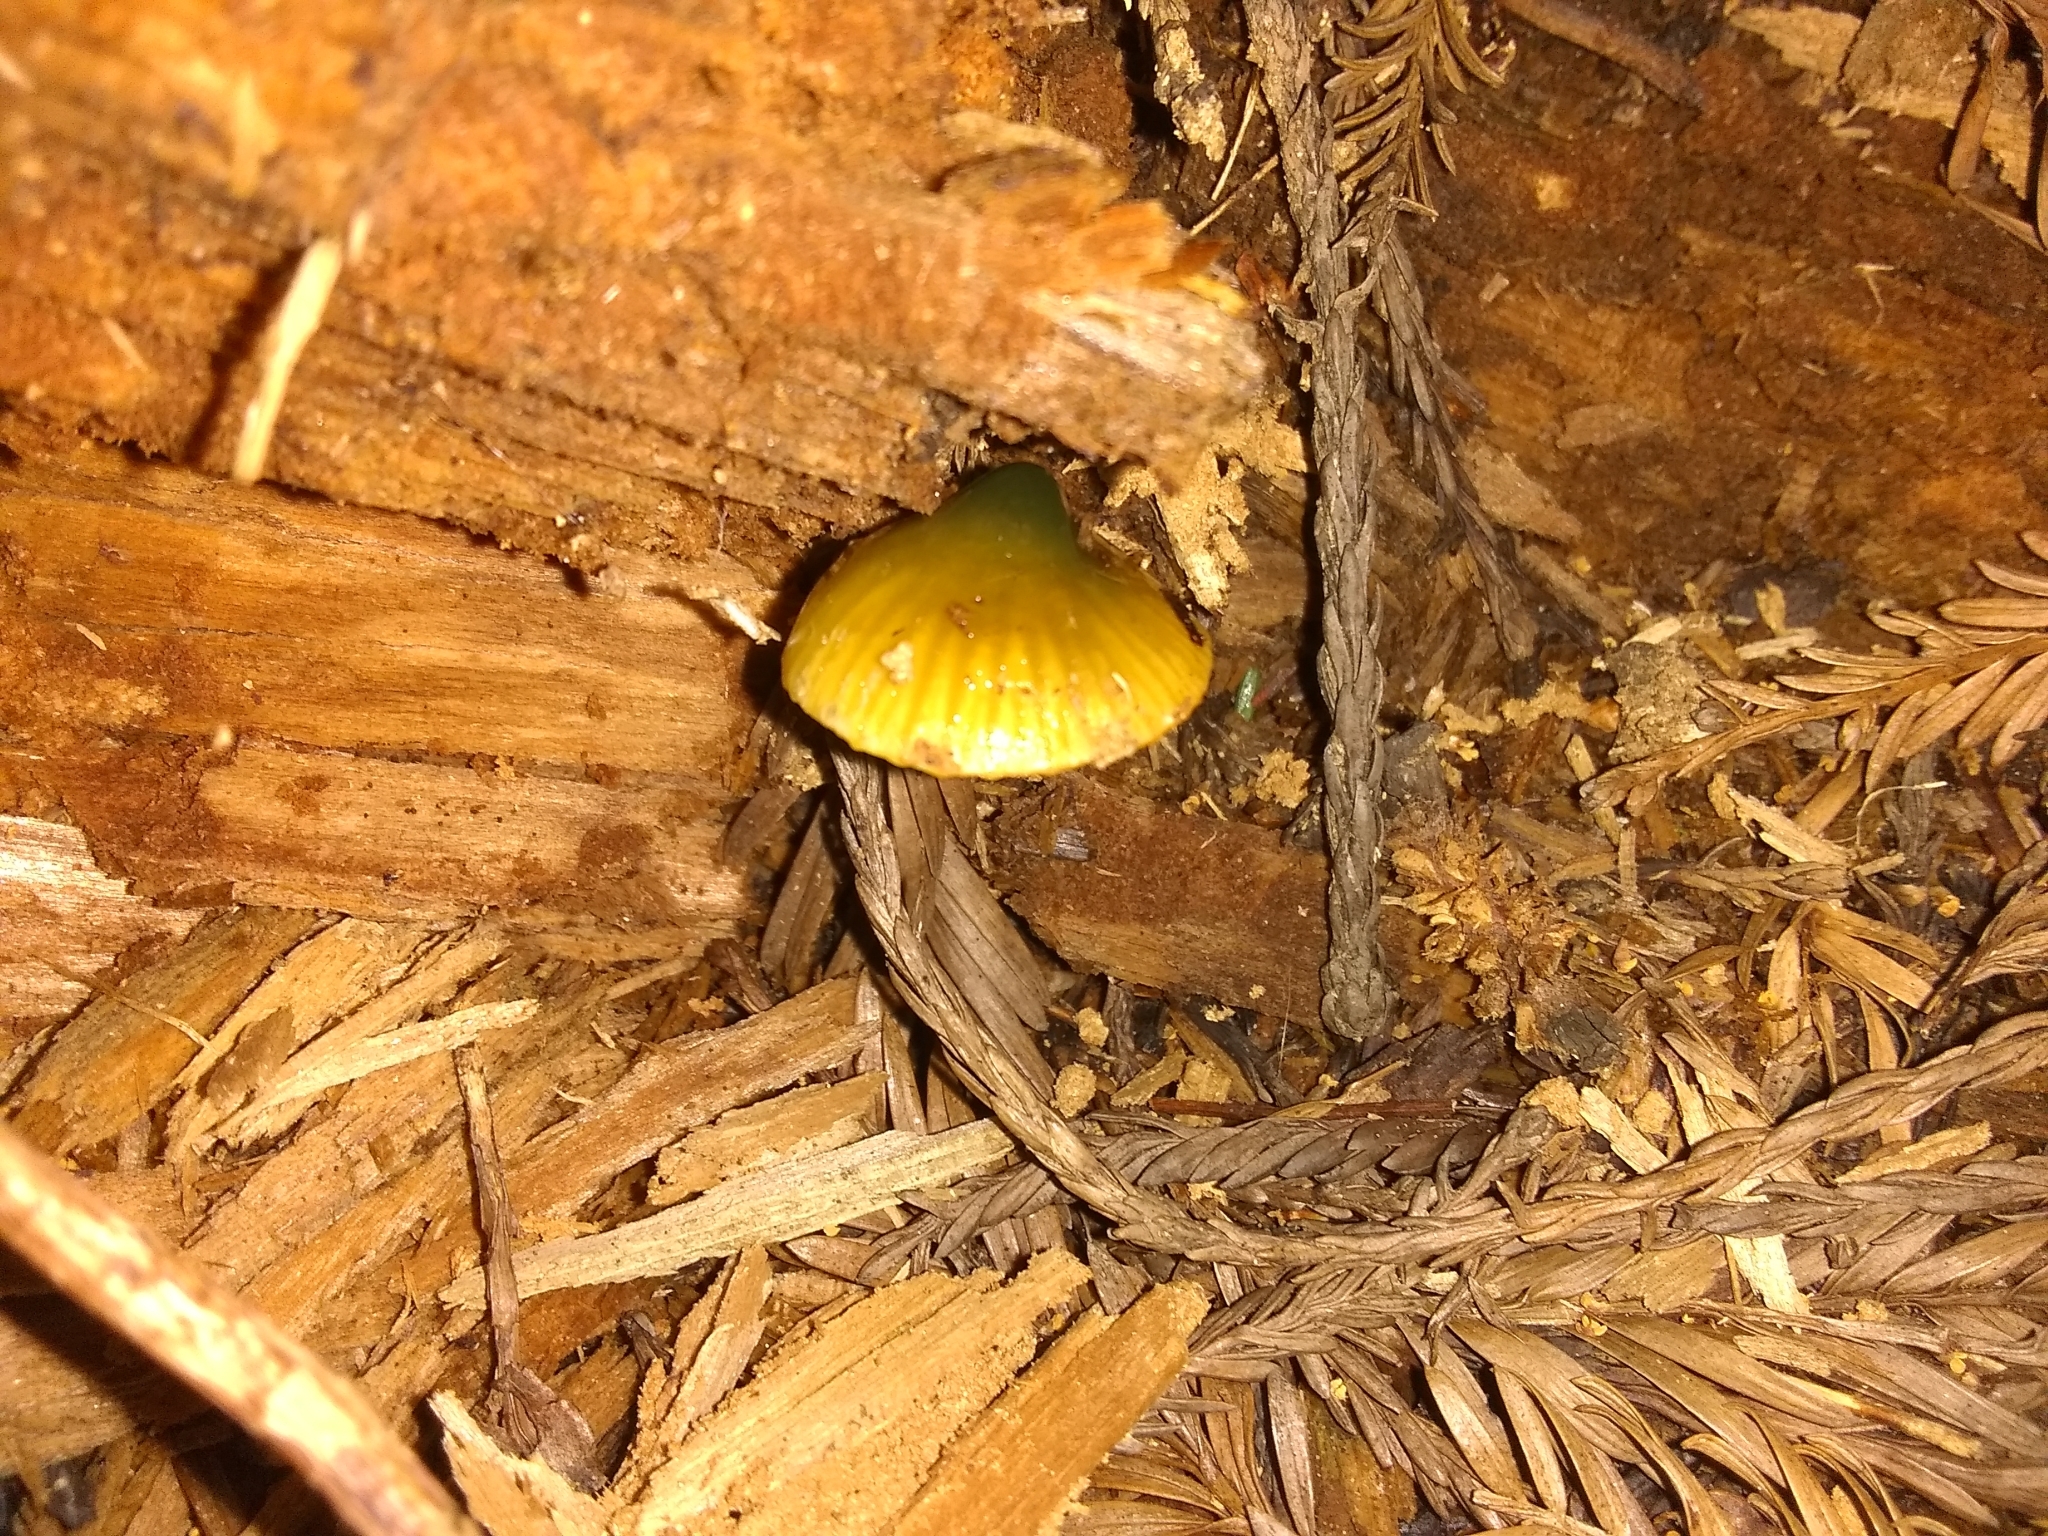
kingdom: Fungi
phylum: Basidiomycota
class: Agaricomycetes
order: Agaricales
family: Hygrophoraceae
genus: Gliophorus
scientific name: Gliophorus psittacinus
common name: Parrot wax-cap
